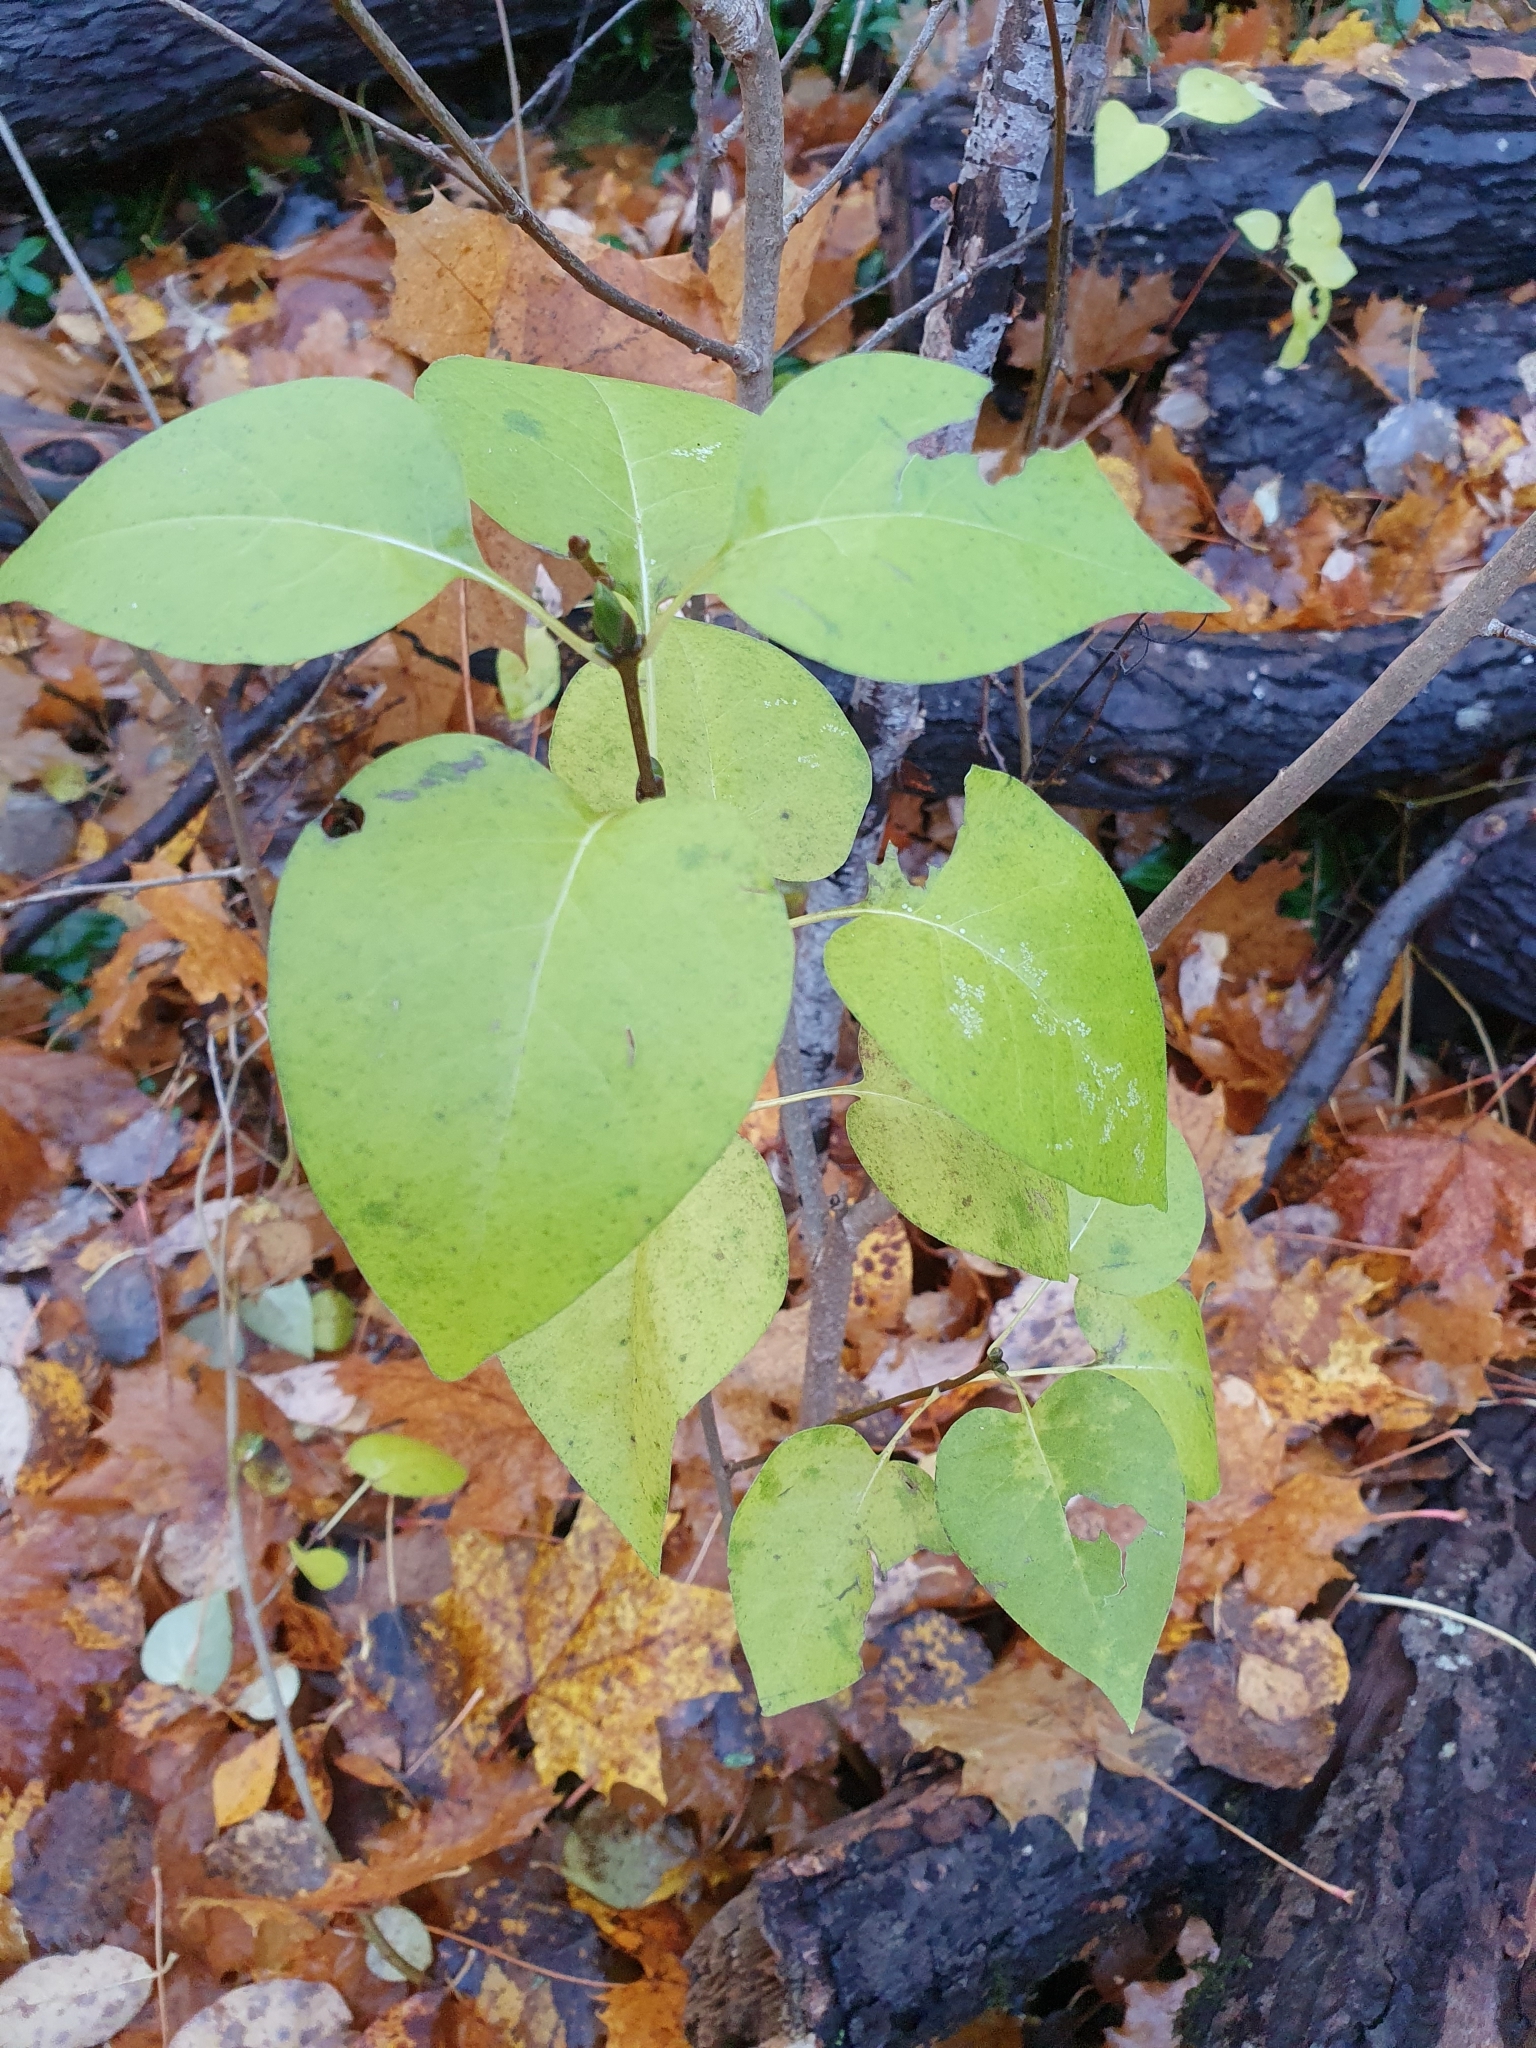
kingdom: Plantae
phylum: Tracheophyta
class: Magnoliopsida
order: Lamiales
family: Oleaceae
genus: Syringa
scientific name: Syringa vulgaris
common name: Common lilac
